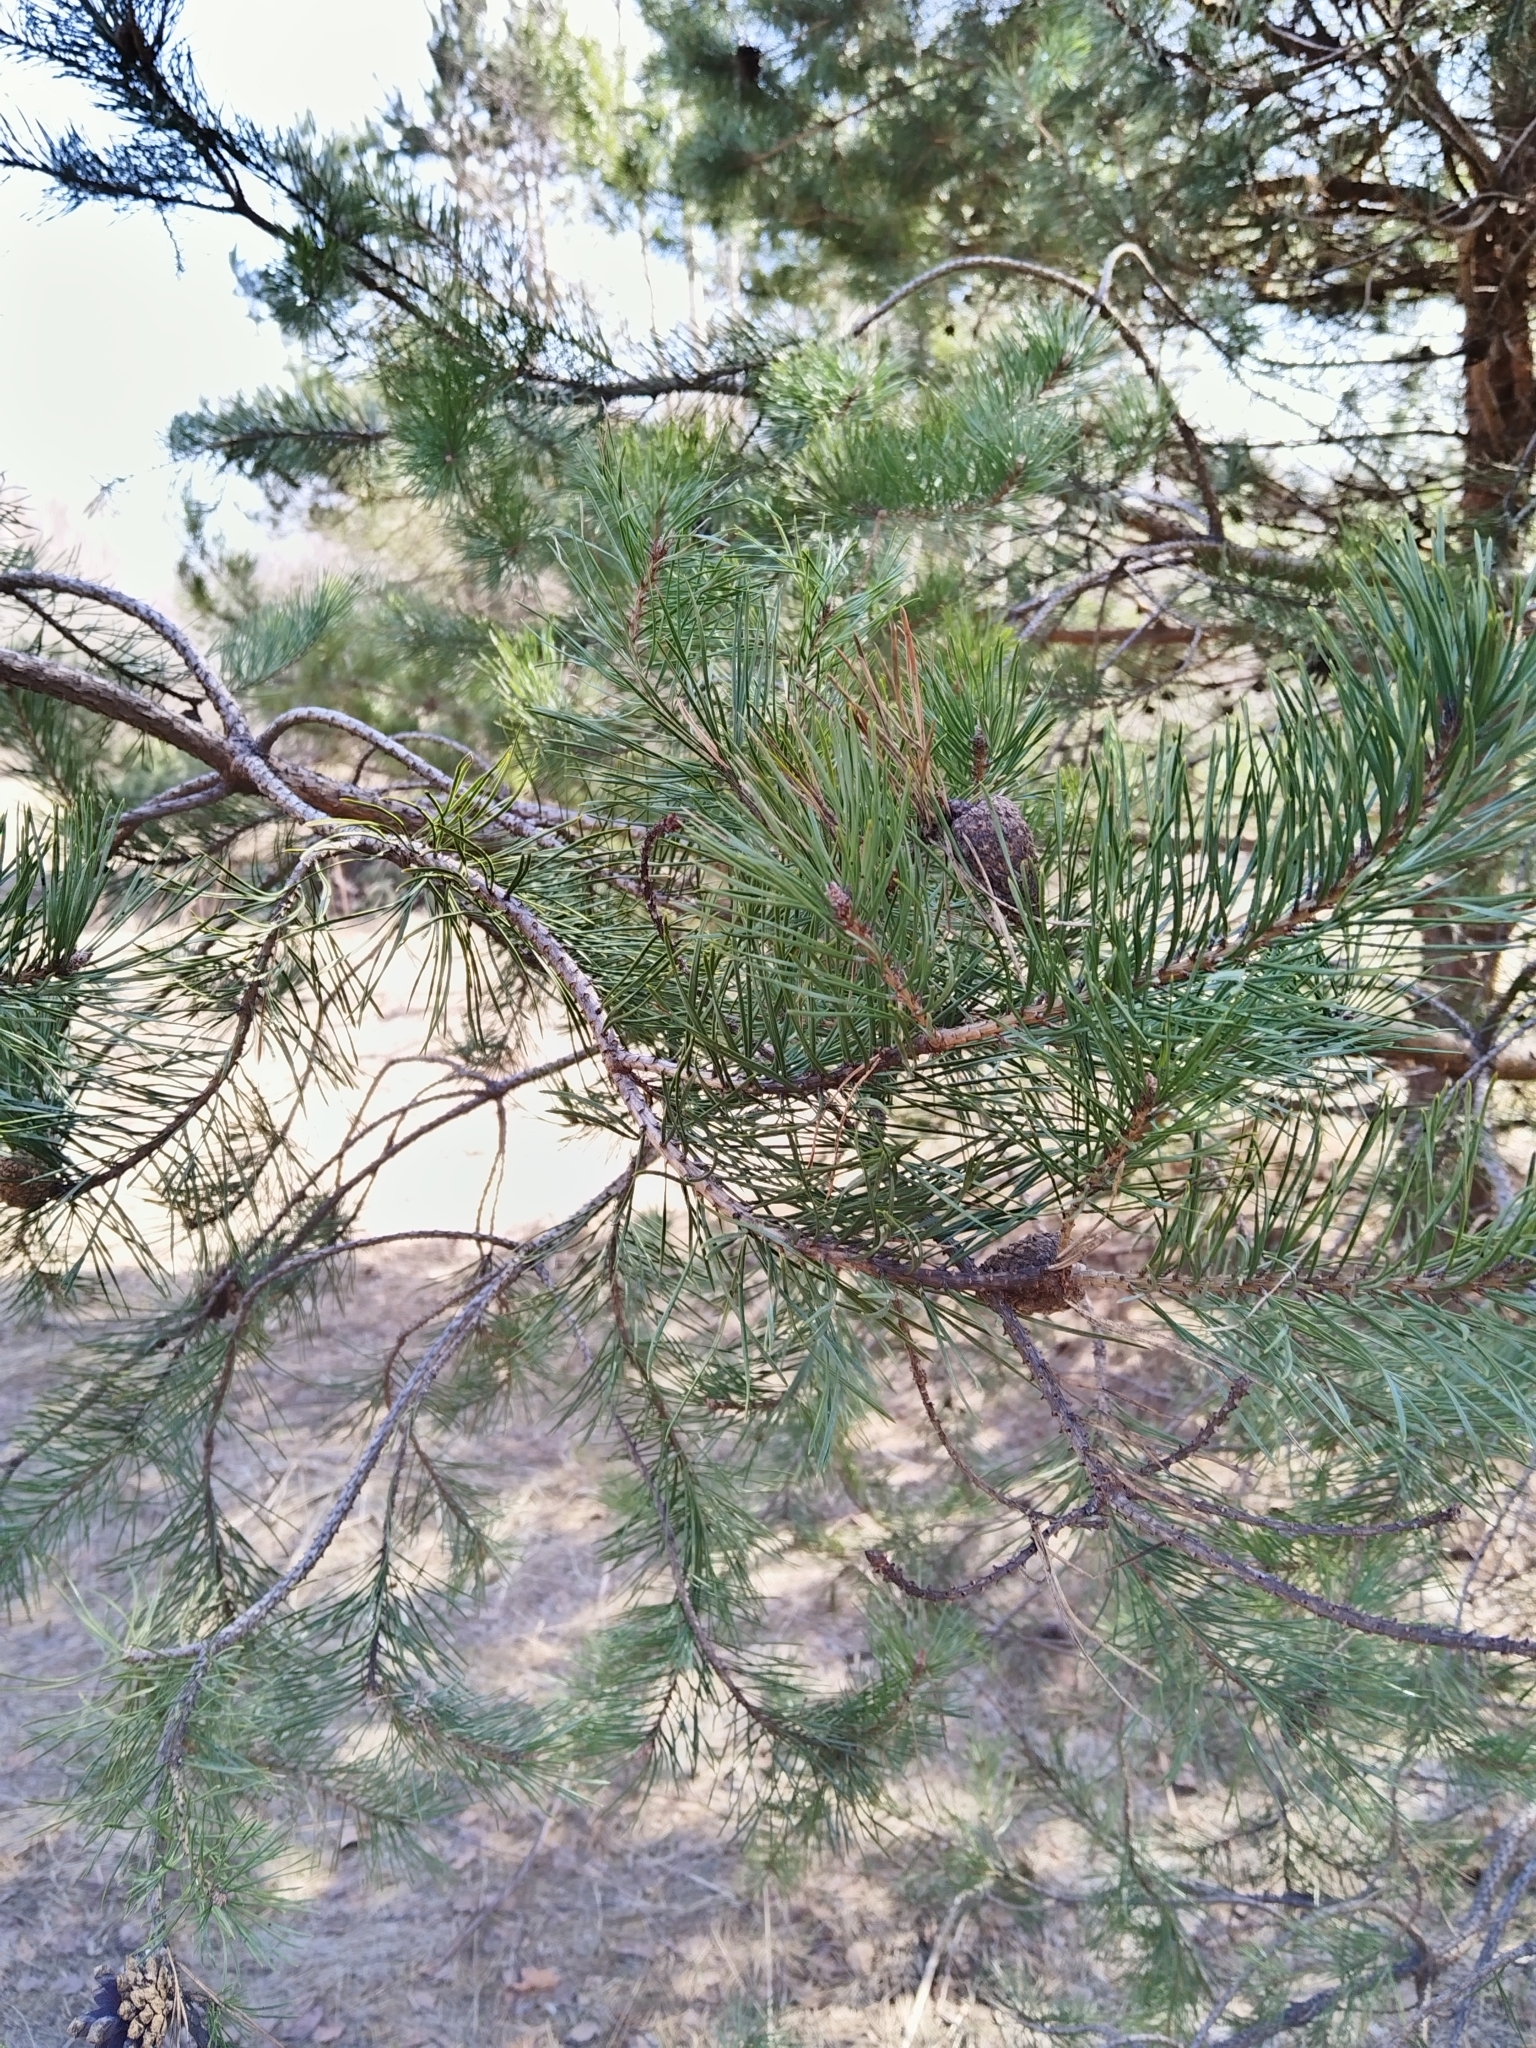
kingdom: Plantae
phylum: Tracheophyta
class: Pinopsida
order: Pinales
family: Pinaceae
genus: Pinus
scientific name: Pinus sylvestris
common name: Scots pine
